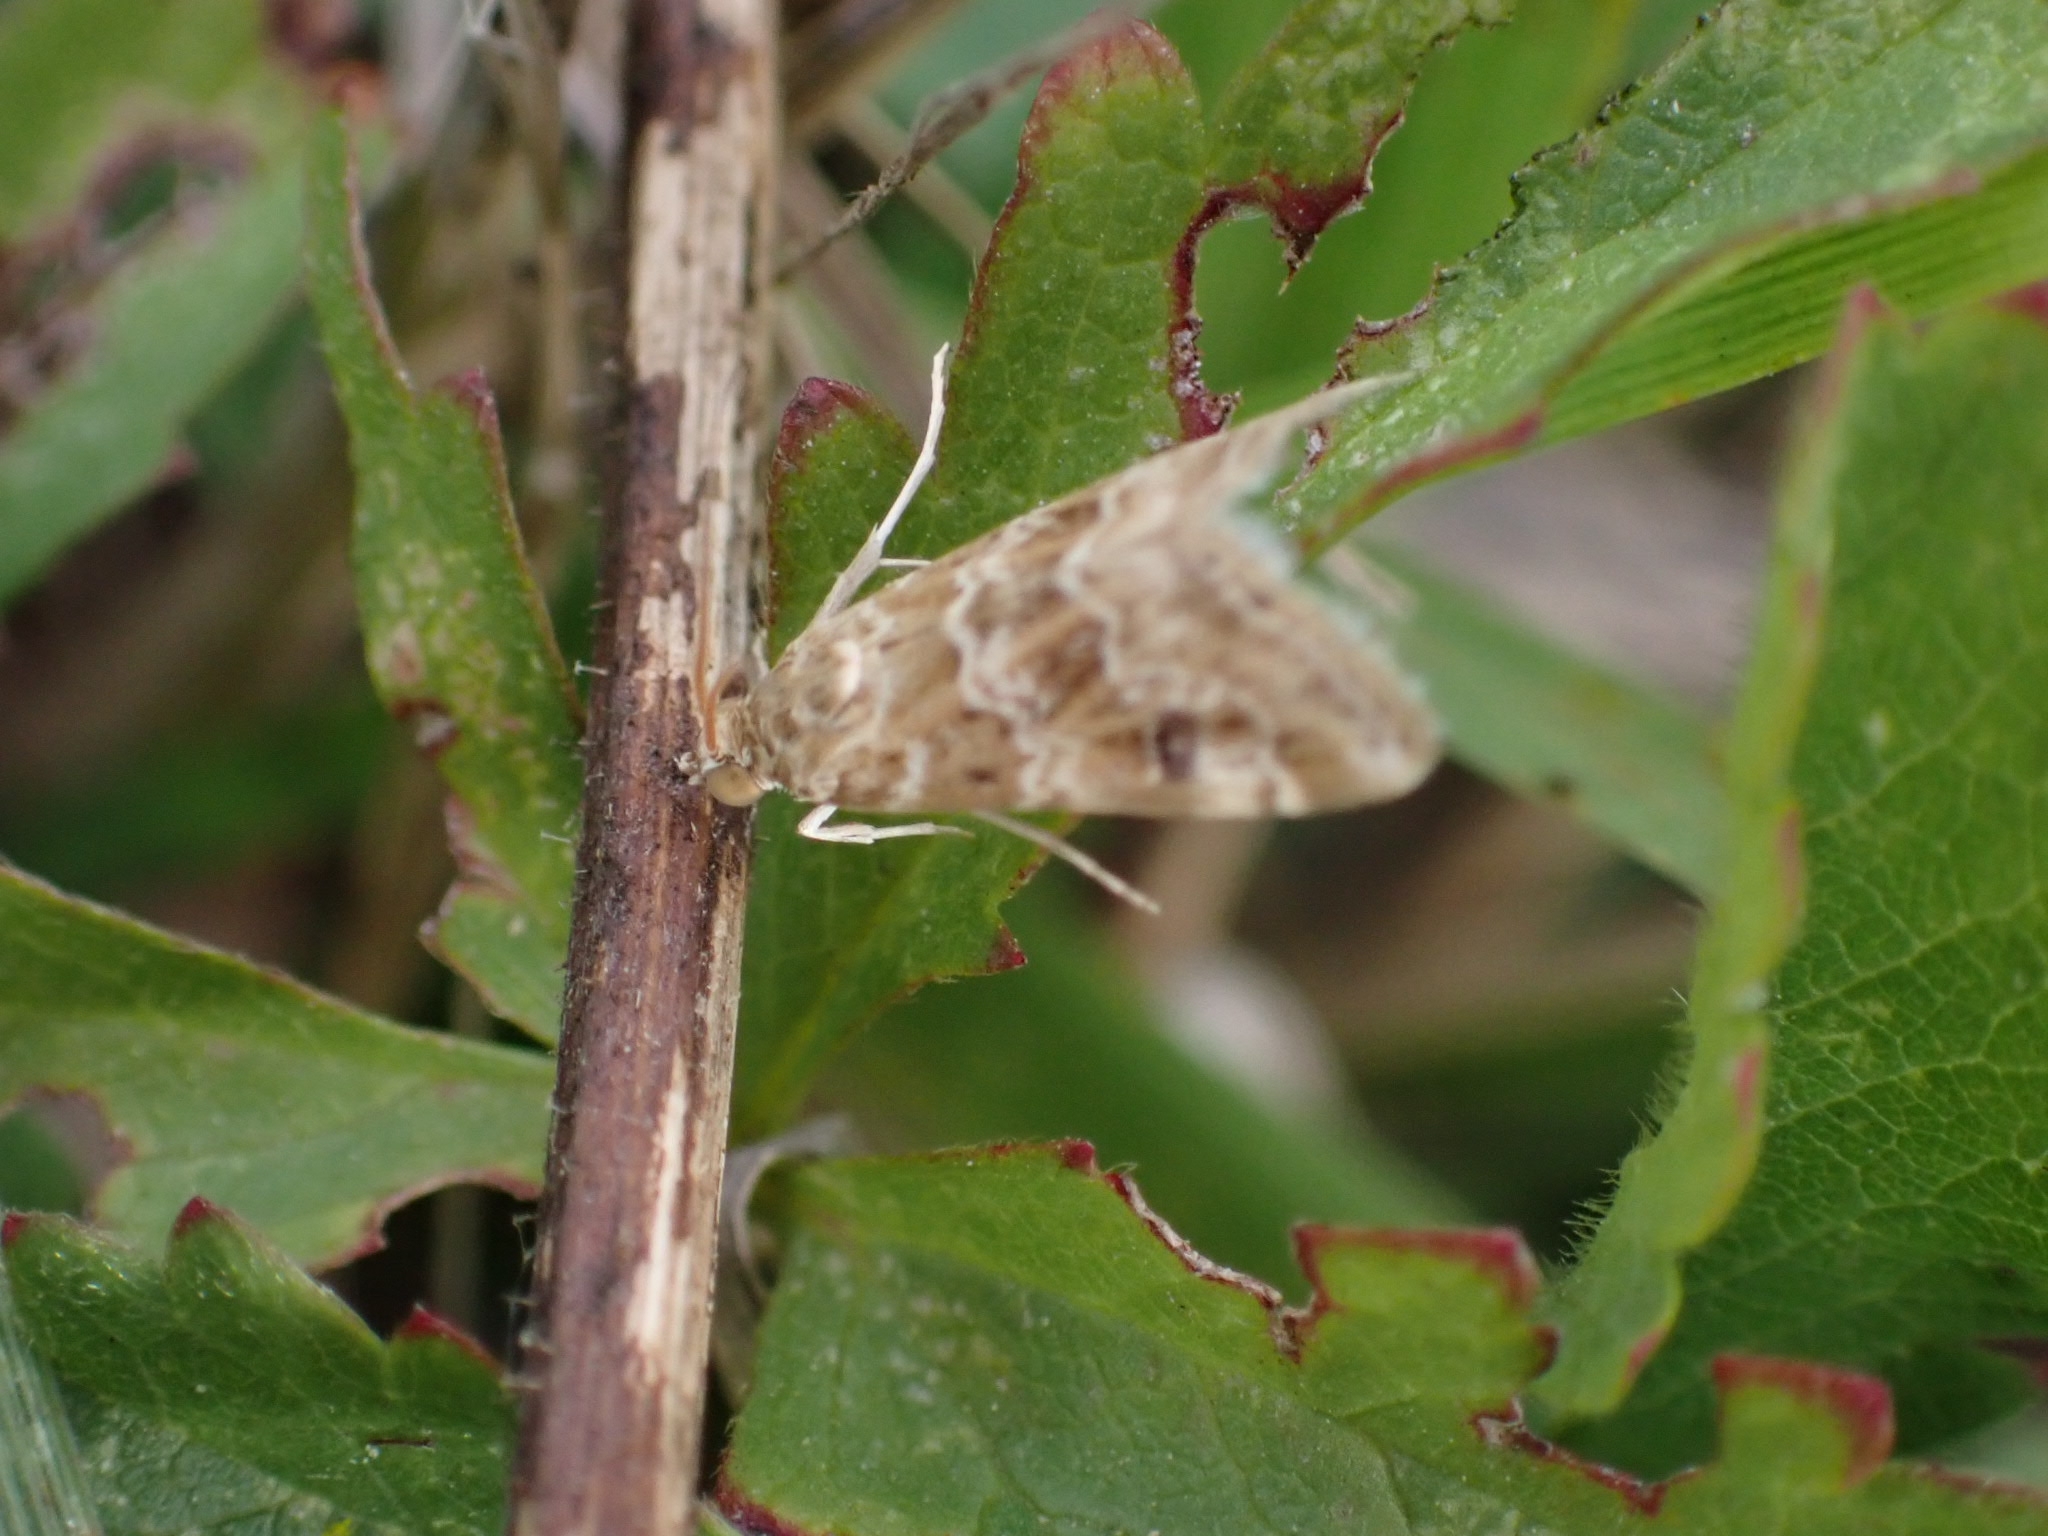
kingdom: Animalia
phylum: Arthropoda
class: Insecta
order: Lepidoptera
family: Crambidae
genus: Hellula
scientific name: Hellula undalis
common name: Cabbage webworm
